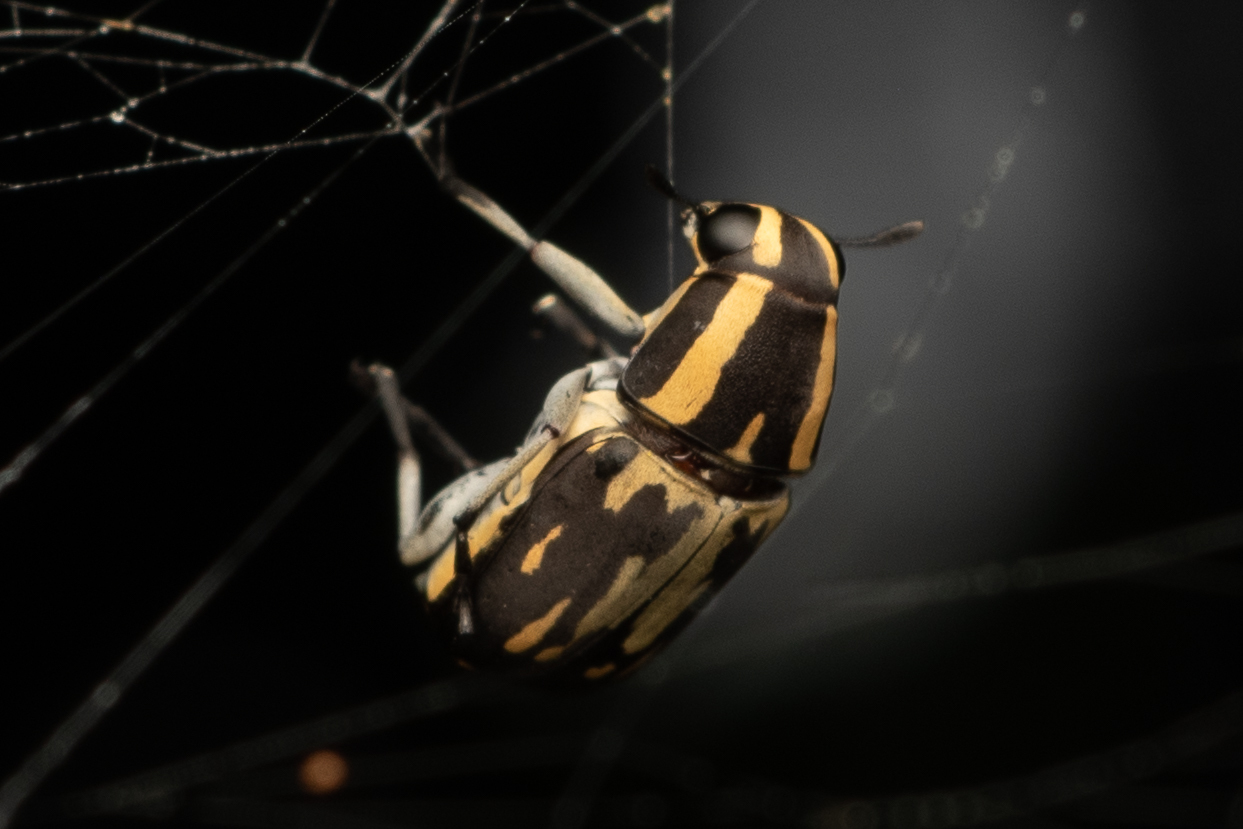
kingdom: Animalia
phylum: Arthropoda
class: Insecta
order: Coleoptera
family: Anthribidae
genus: Phaenithon
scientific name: Phaenithon jucundus
